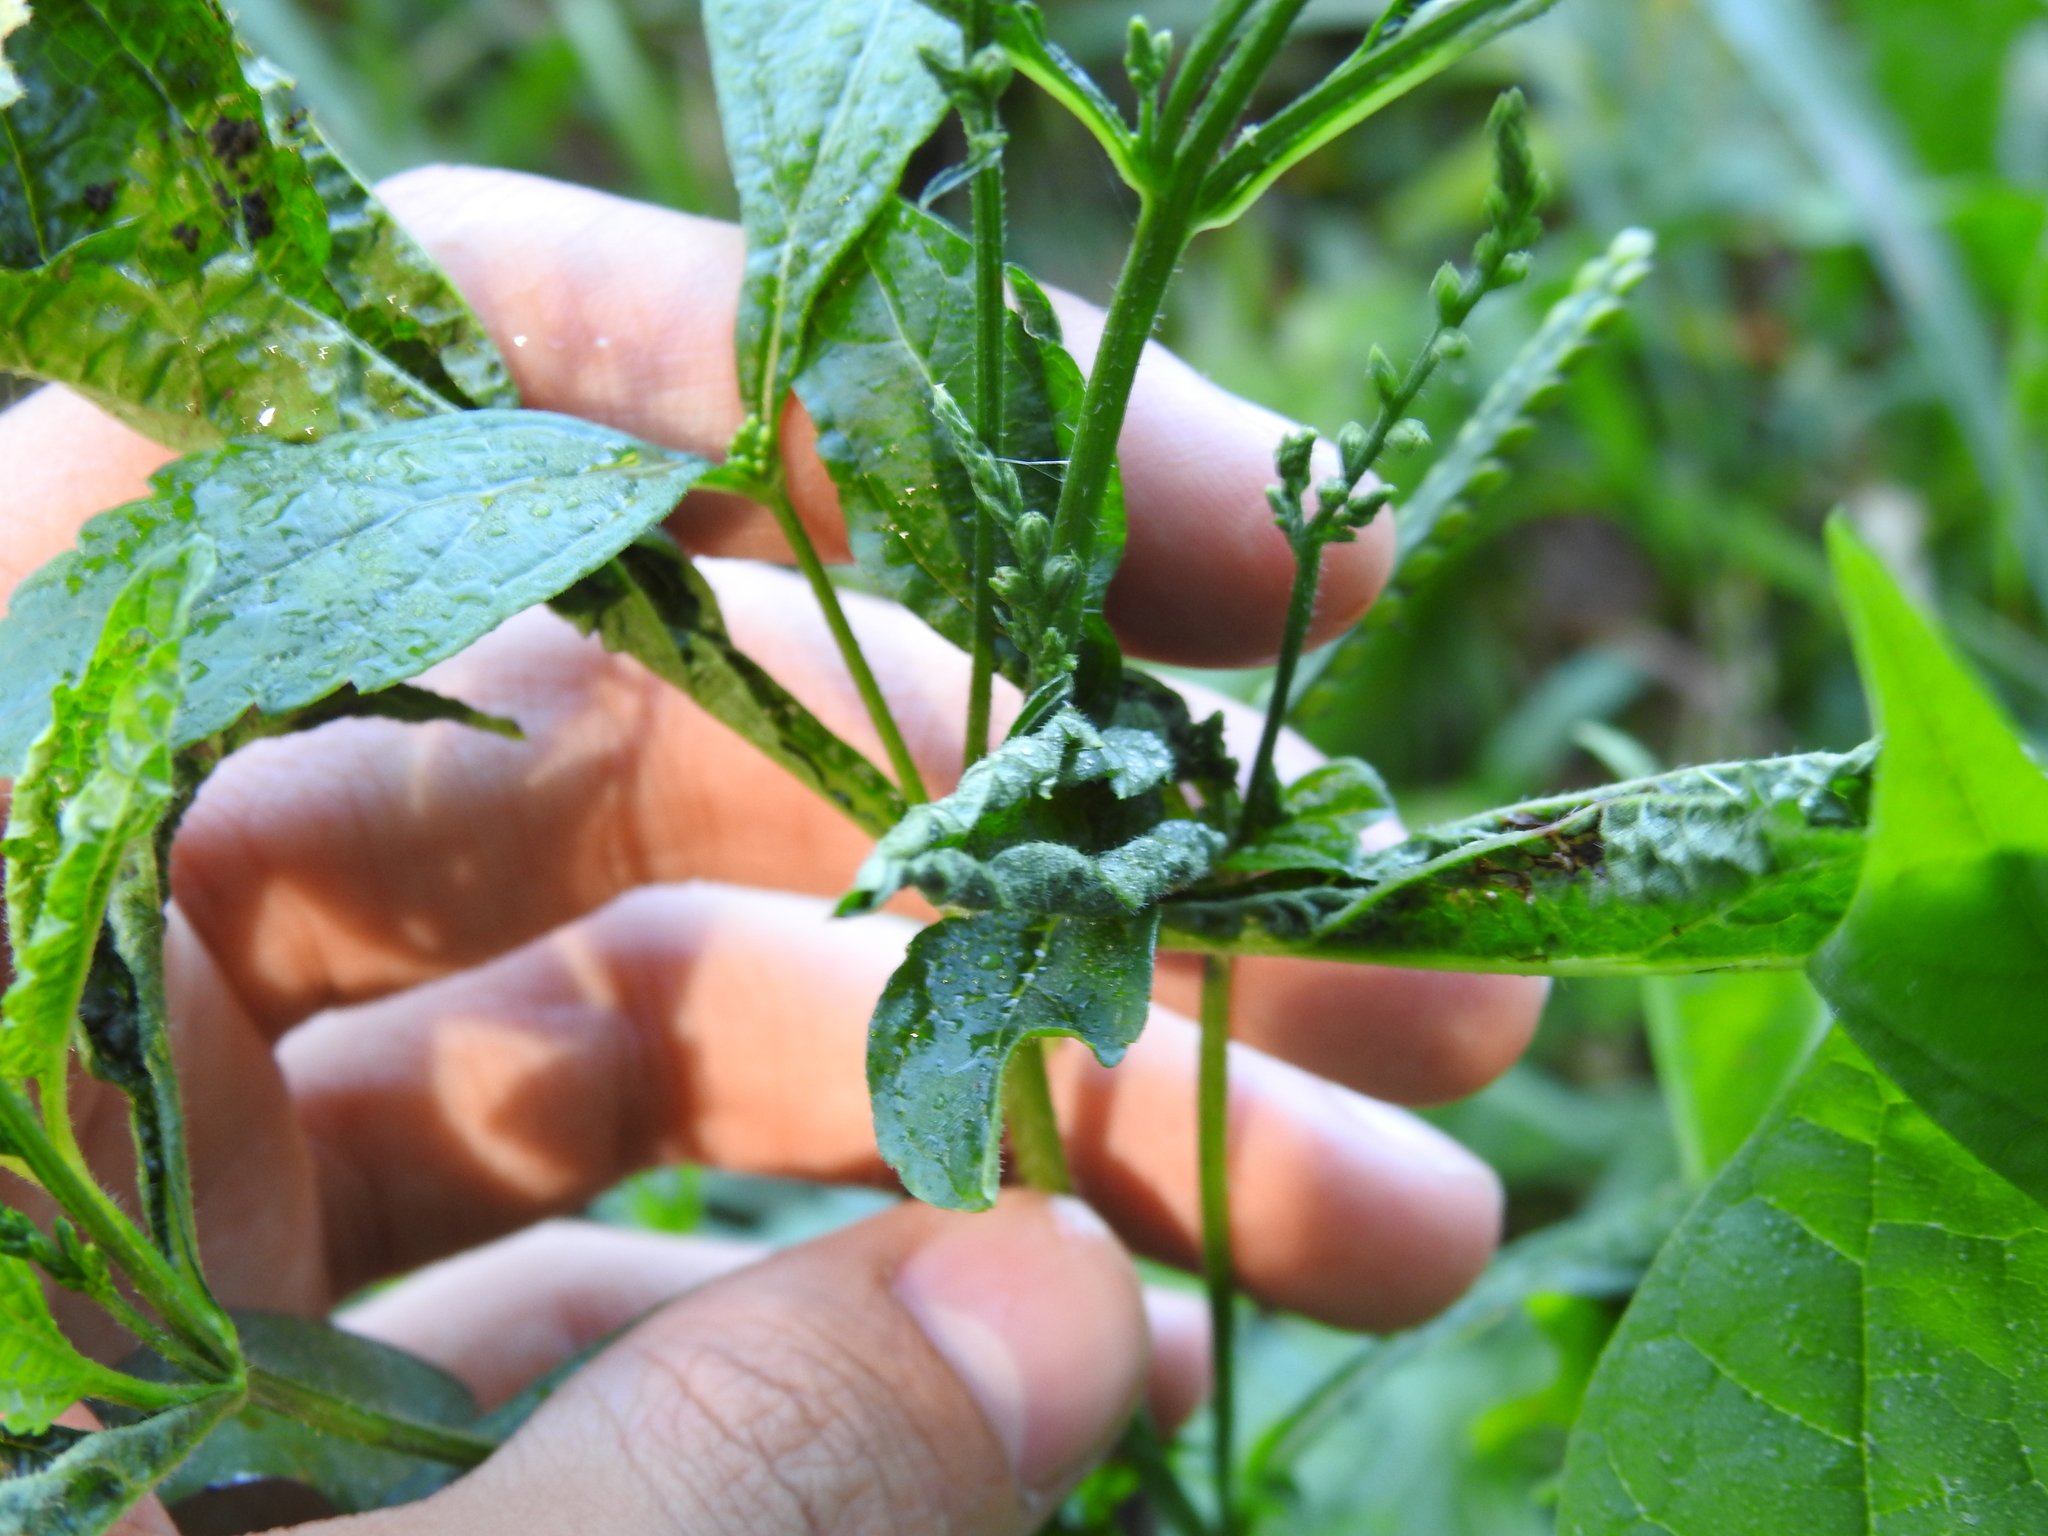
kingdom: Animalia
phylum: Arthropoda
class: Insecta
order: Diptera
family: Cecidomyiidae
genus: Clinodiplosis
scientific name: Clinodiplosis verbenae
